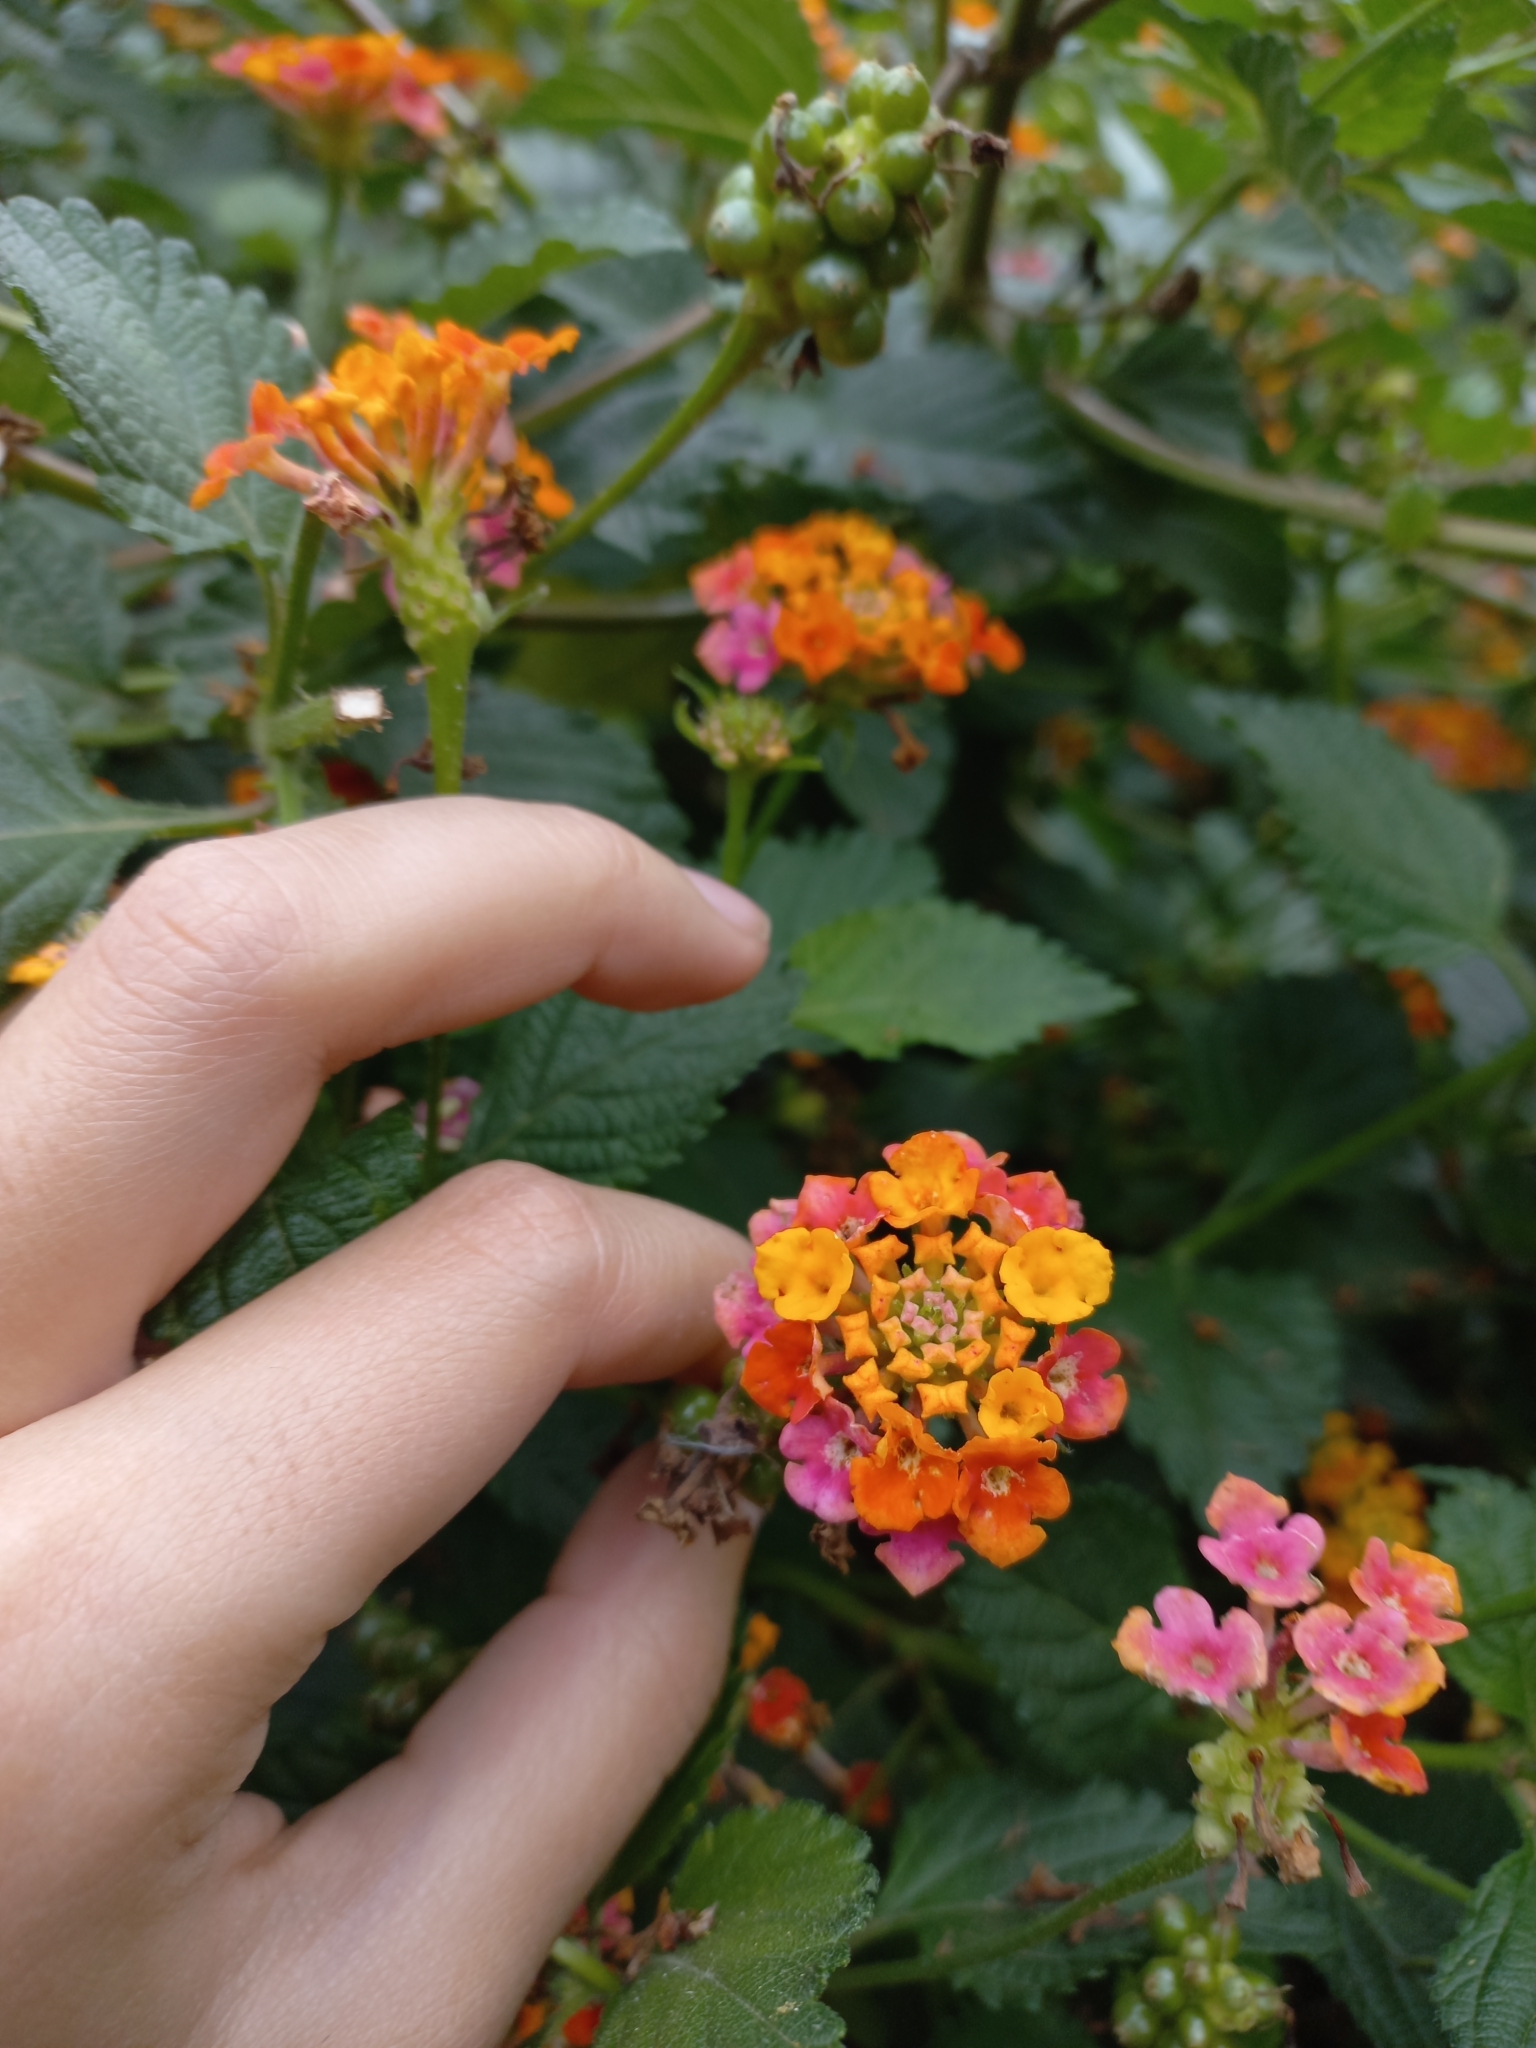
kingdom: Plantae
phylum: Tracheophyta
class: Magnoliopsida
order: Lamiales
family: Verbenaceae
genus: Lantana
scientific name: Lantana camara
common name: Lantana
